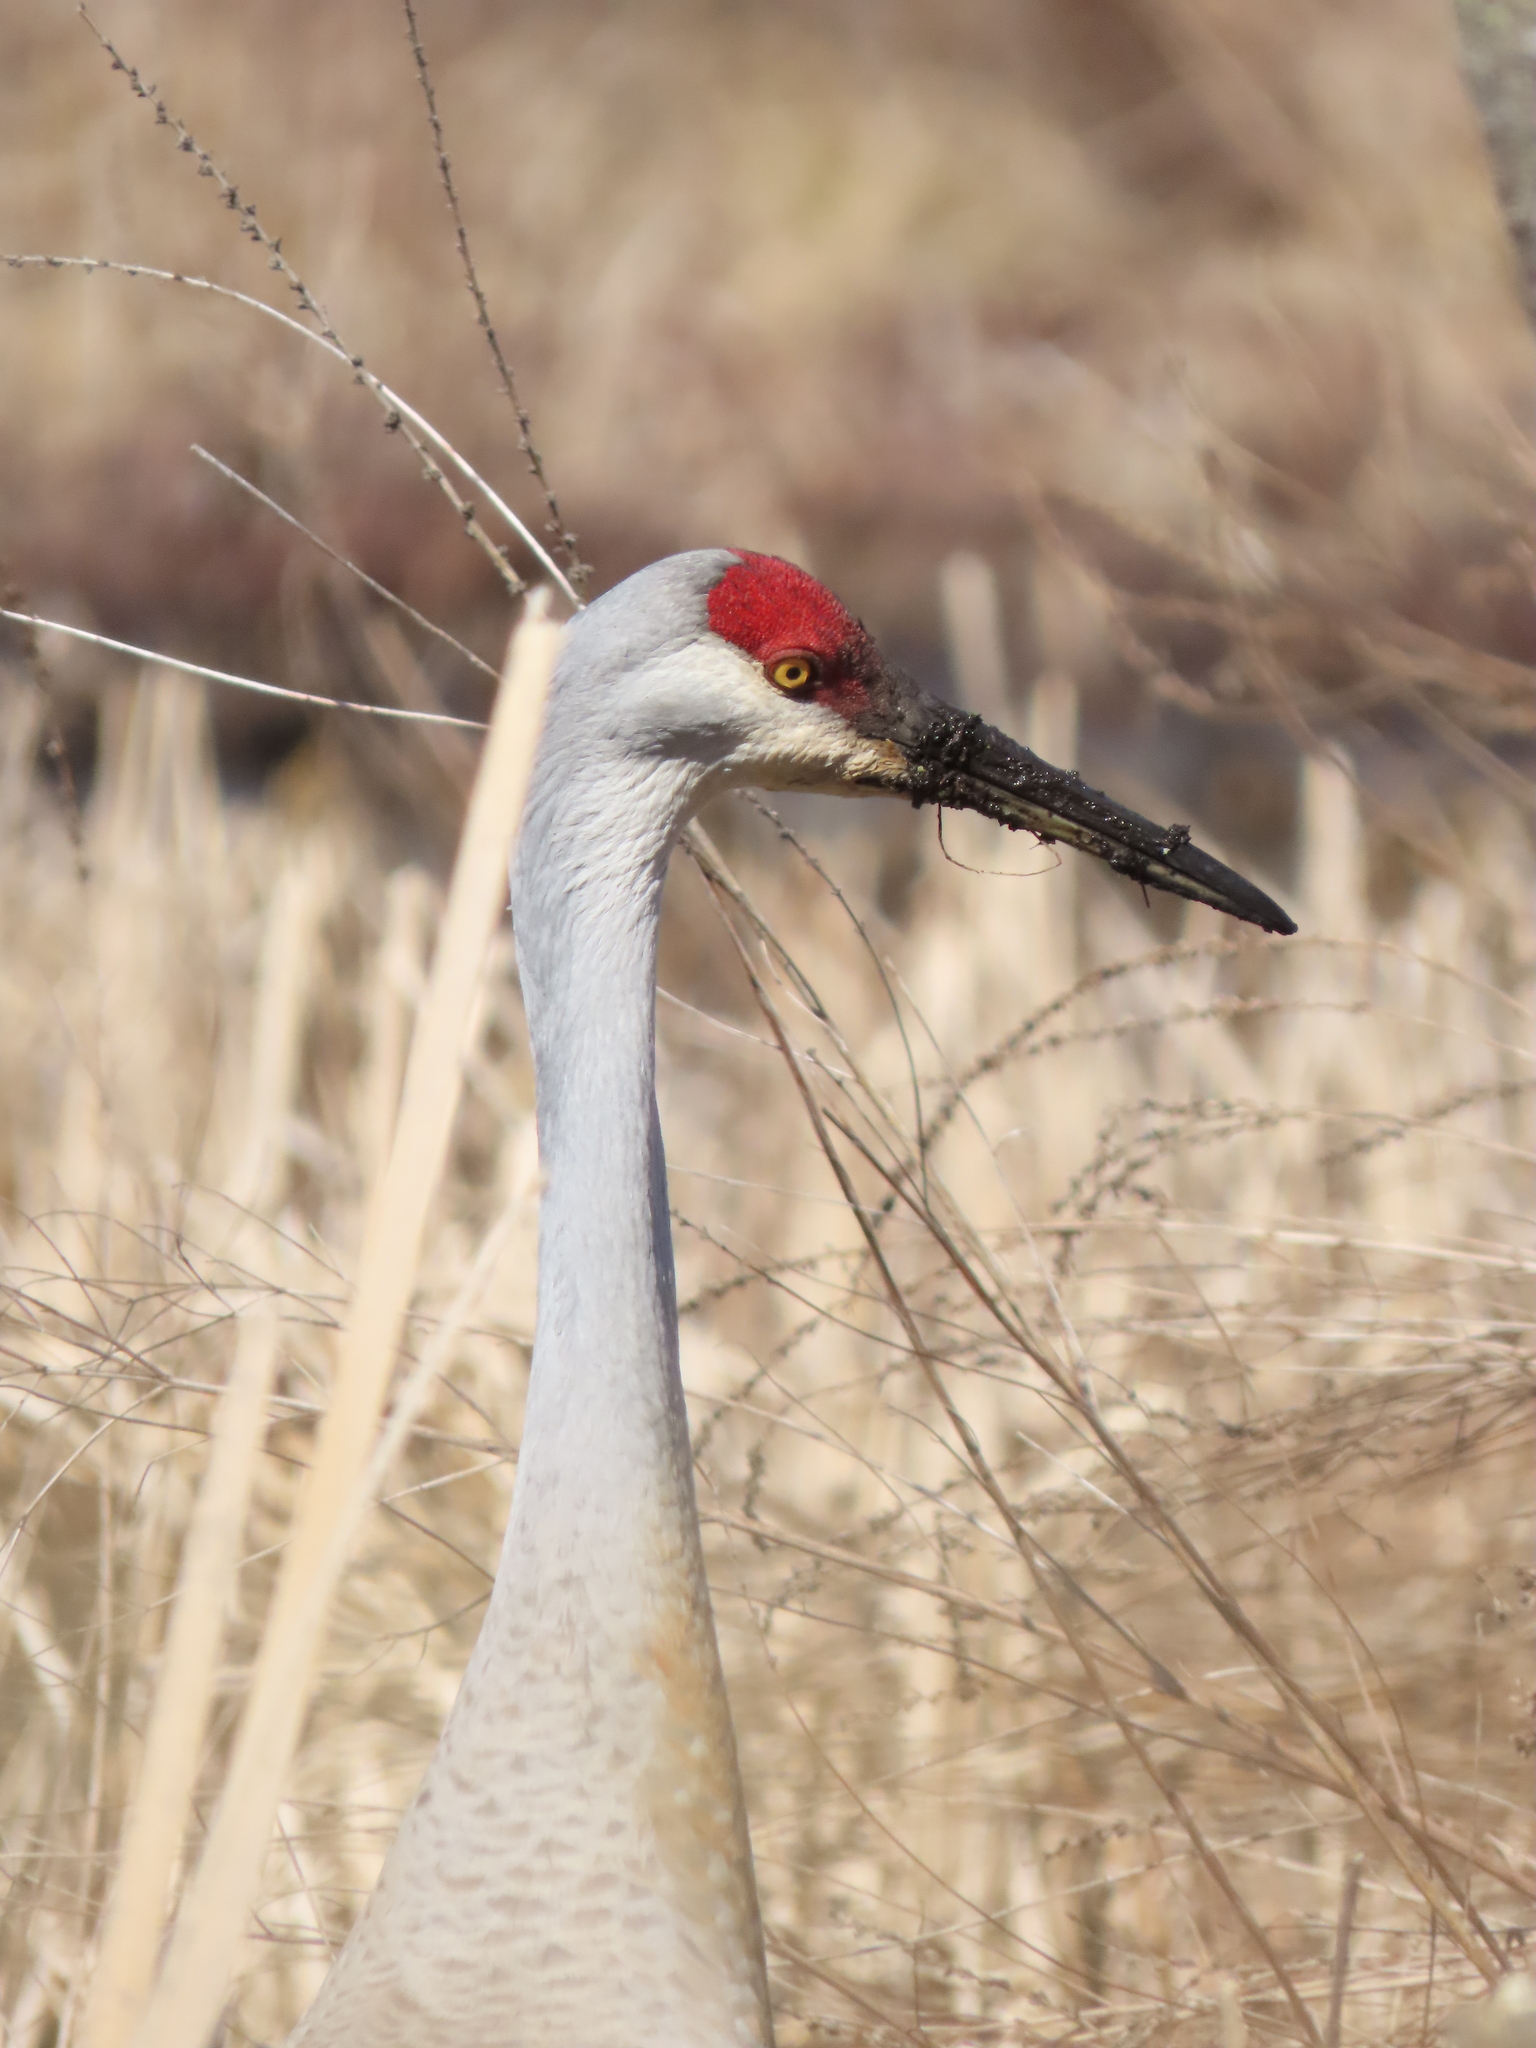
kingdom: Animalia
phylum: Chordata
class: Aves
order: Gruiformes
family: Gruidae
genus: Grus
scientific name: Grus canadensis
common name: Sandhill crane
